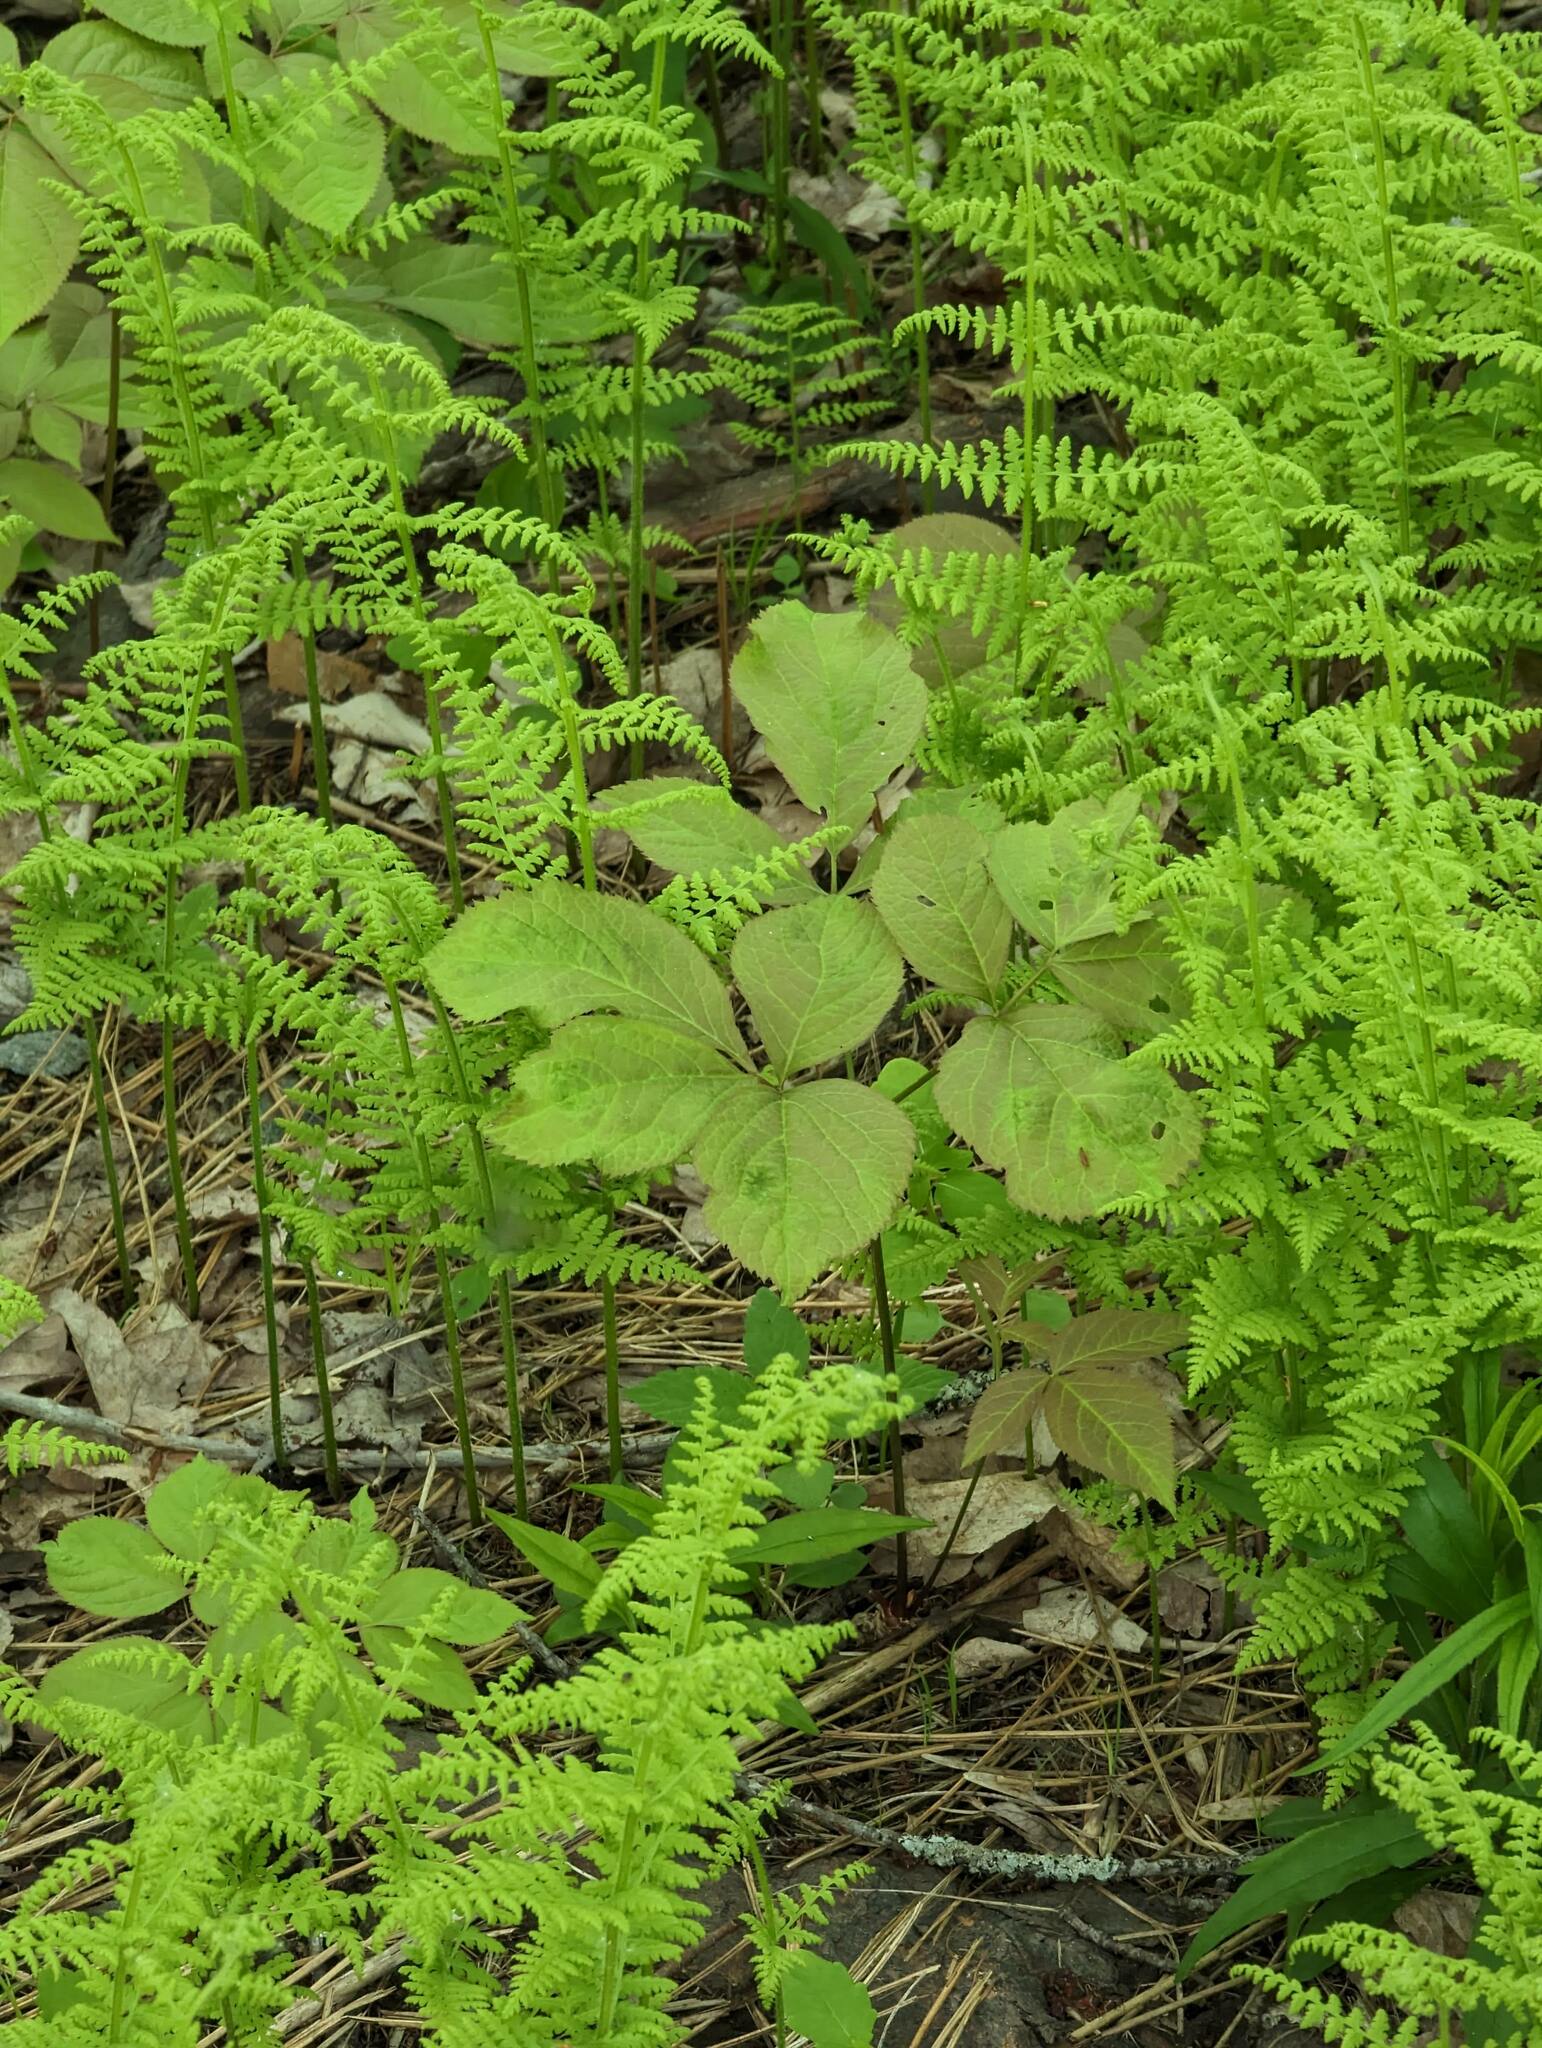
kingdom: Plantae
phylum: Tracheophyta
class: Magnoliopsida
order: Apiales
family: Araliaceae
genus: Aralia
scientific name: Aralia nudicaulis
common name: Wild sarsaparilla
